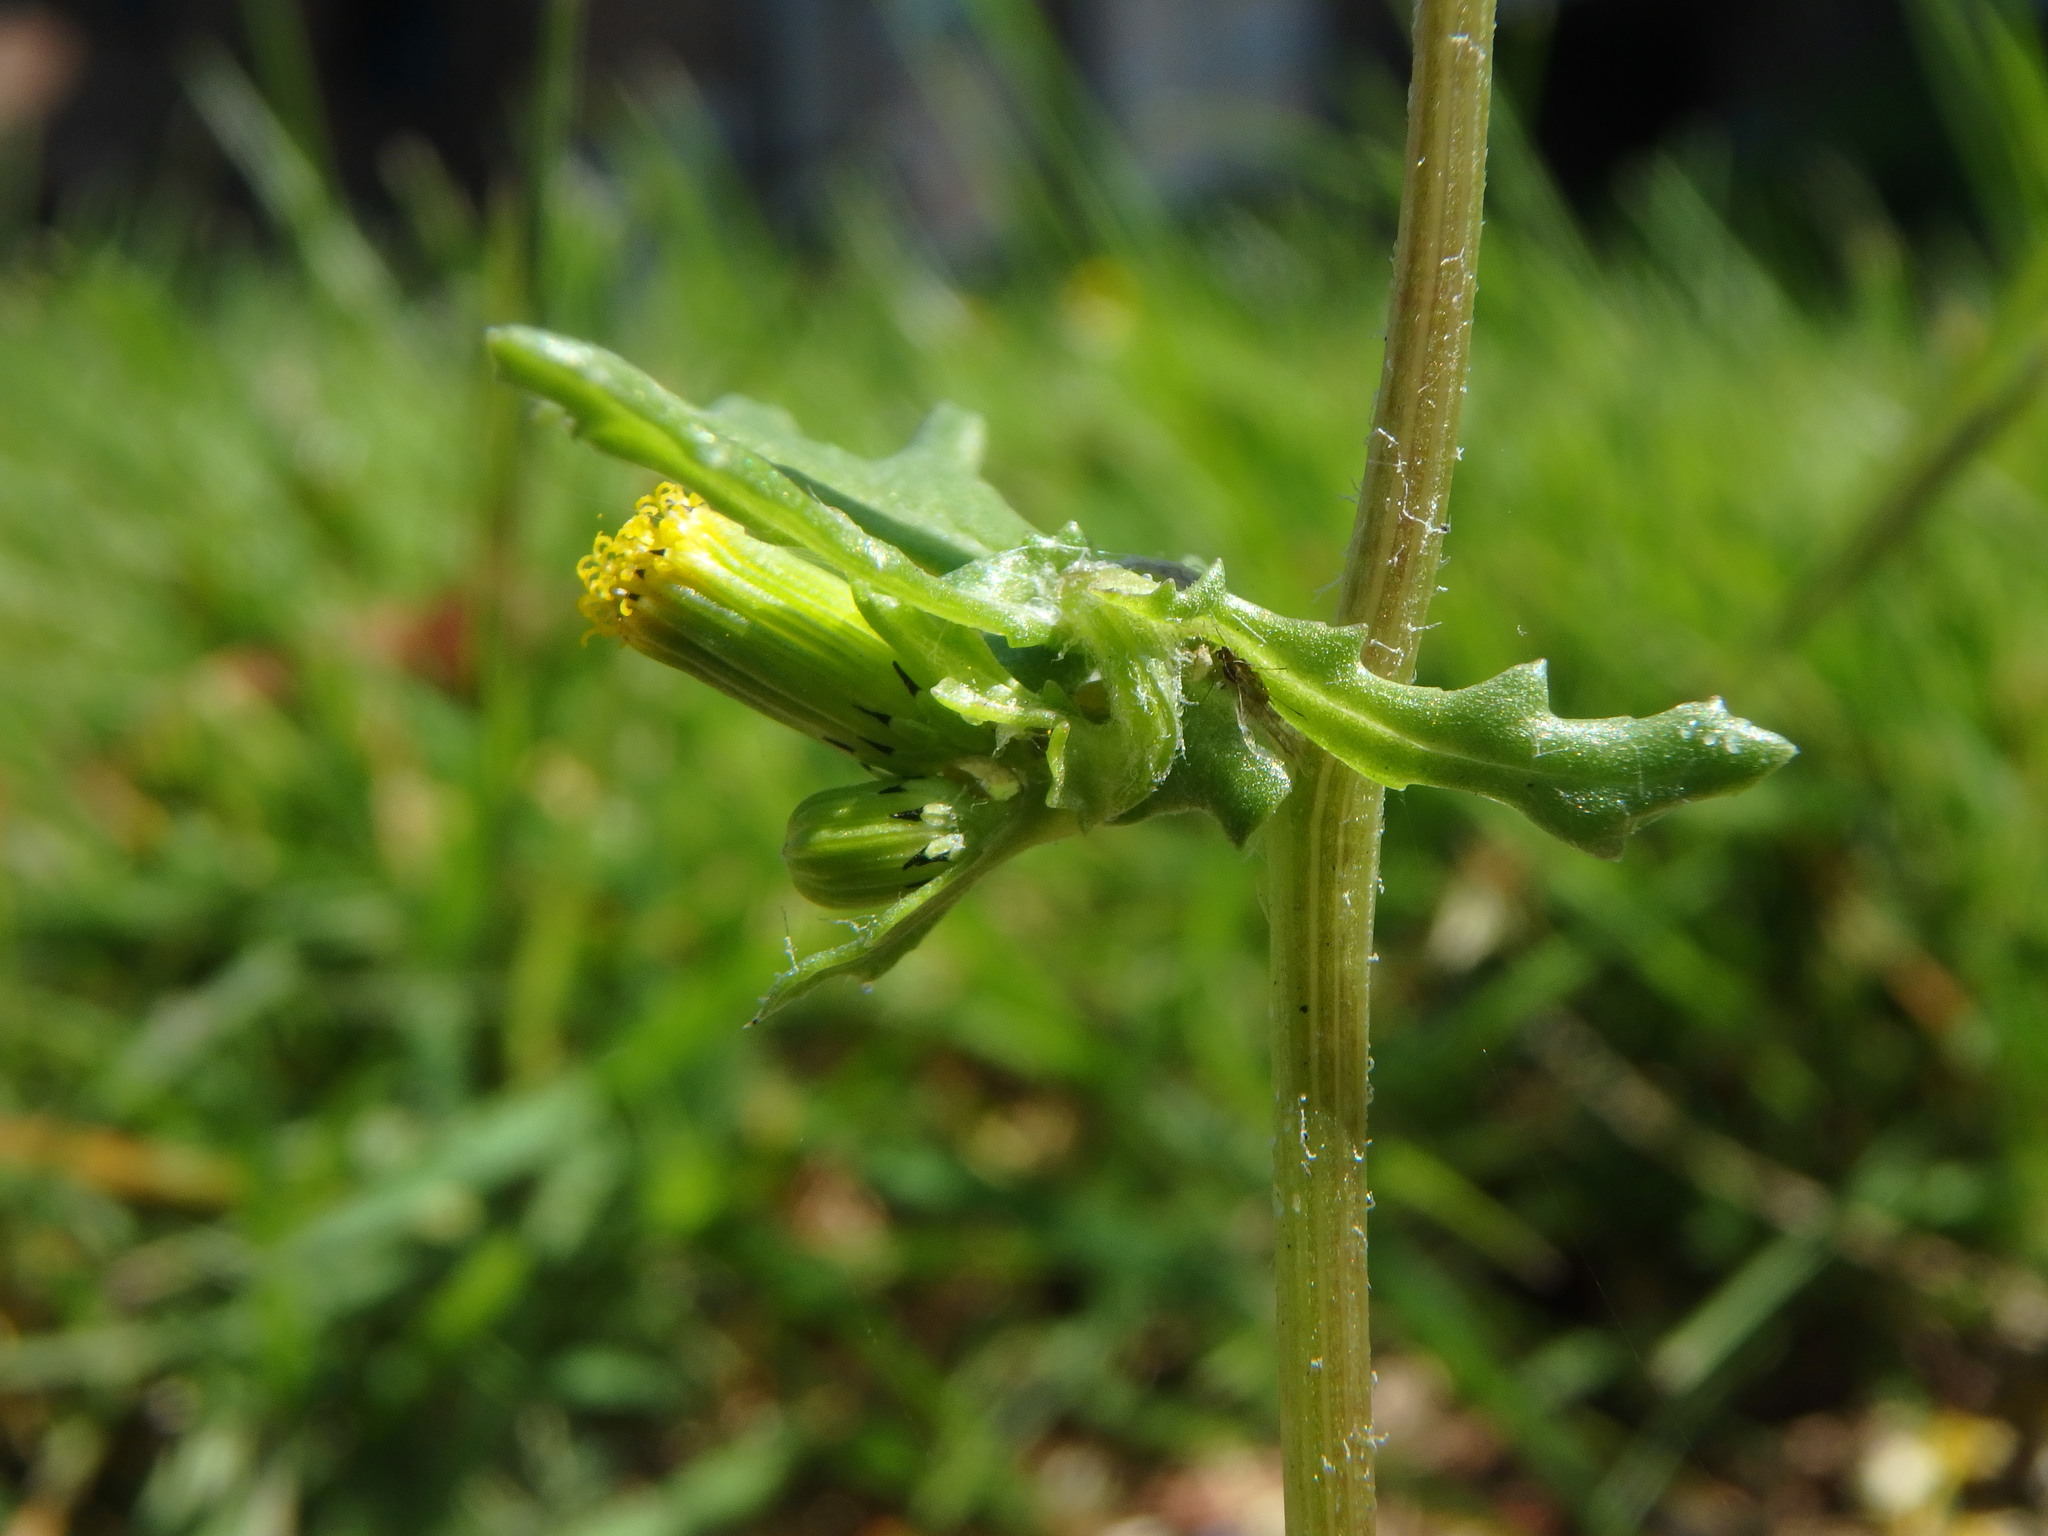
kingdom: Plantae
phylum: Tracheophyta
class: Magnoliopsida
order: Asterales
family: Asteraceae
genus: Senecio
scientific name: Senecio vulgaris
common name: Old-man-in-the-spring
